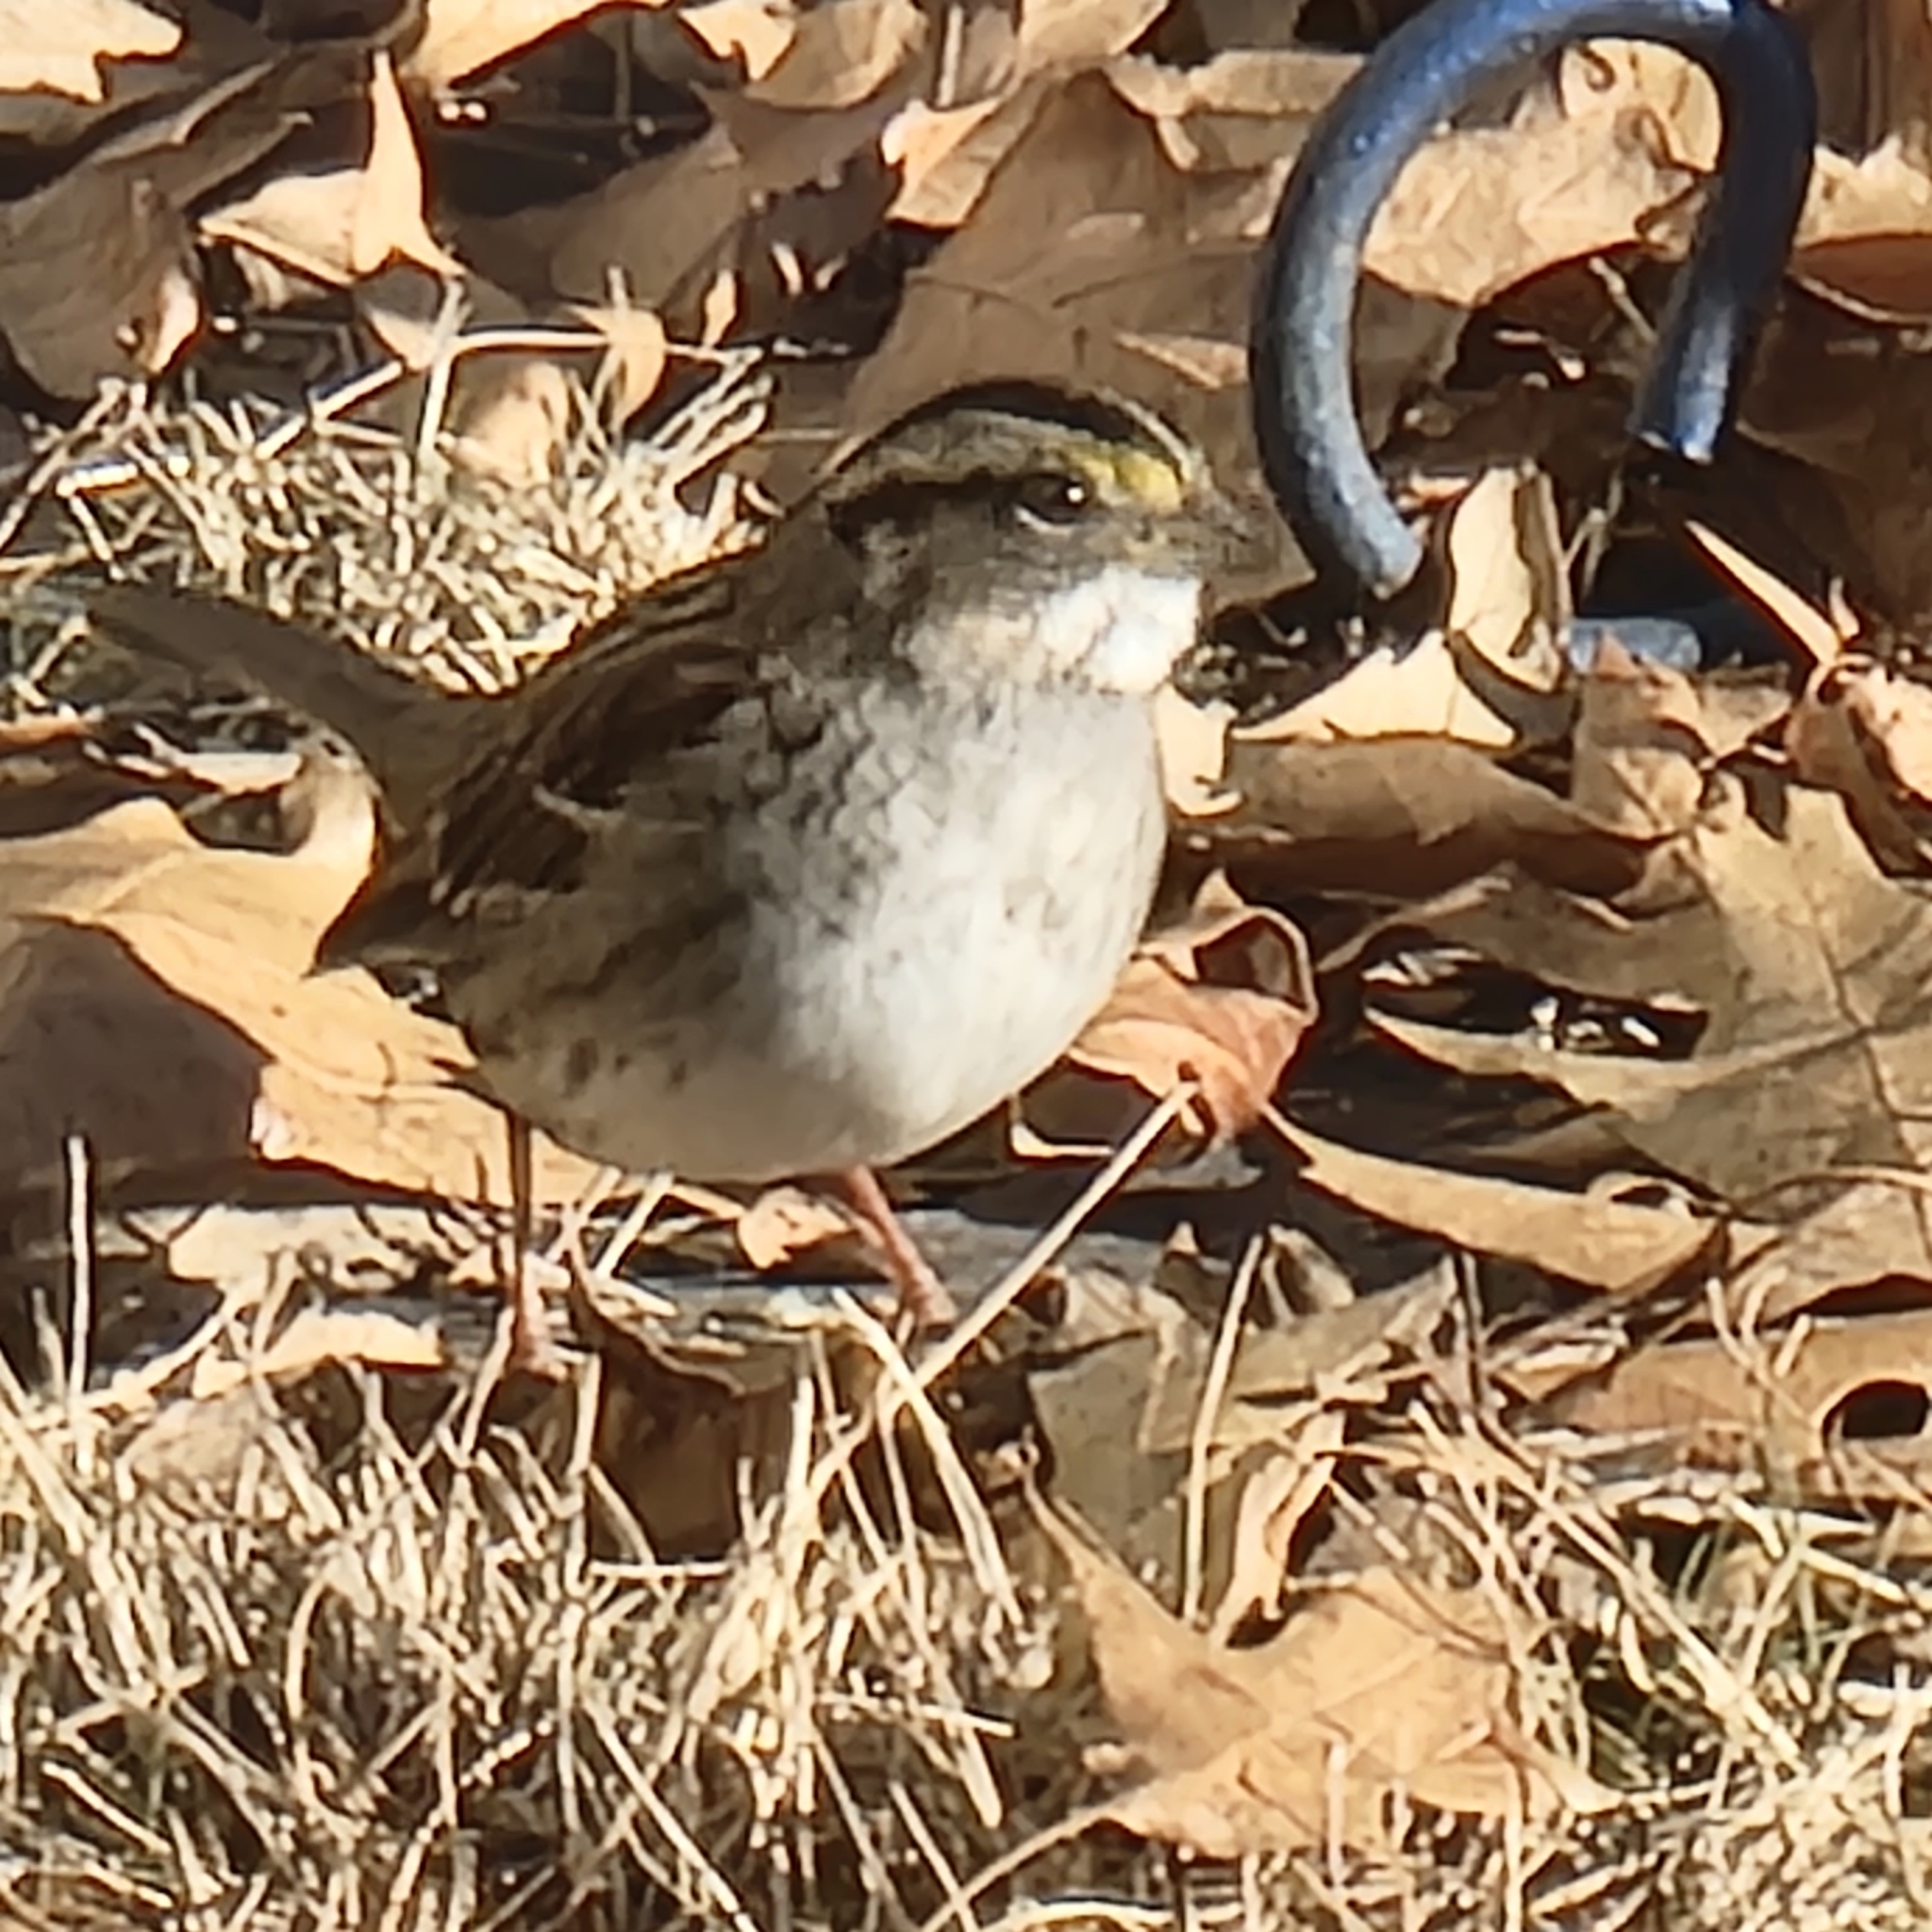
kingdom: Animalia
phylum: Chordata
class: Aves
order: Passeriformes
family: Passerellidae
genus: Zonotrichia
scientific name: Zonotrichia albicollis
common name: White-throated sparrow
